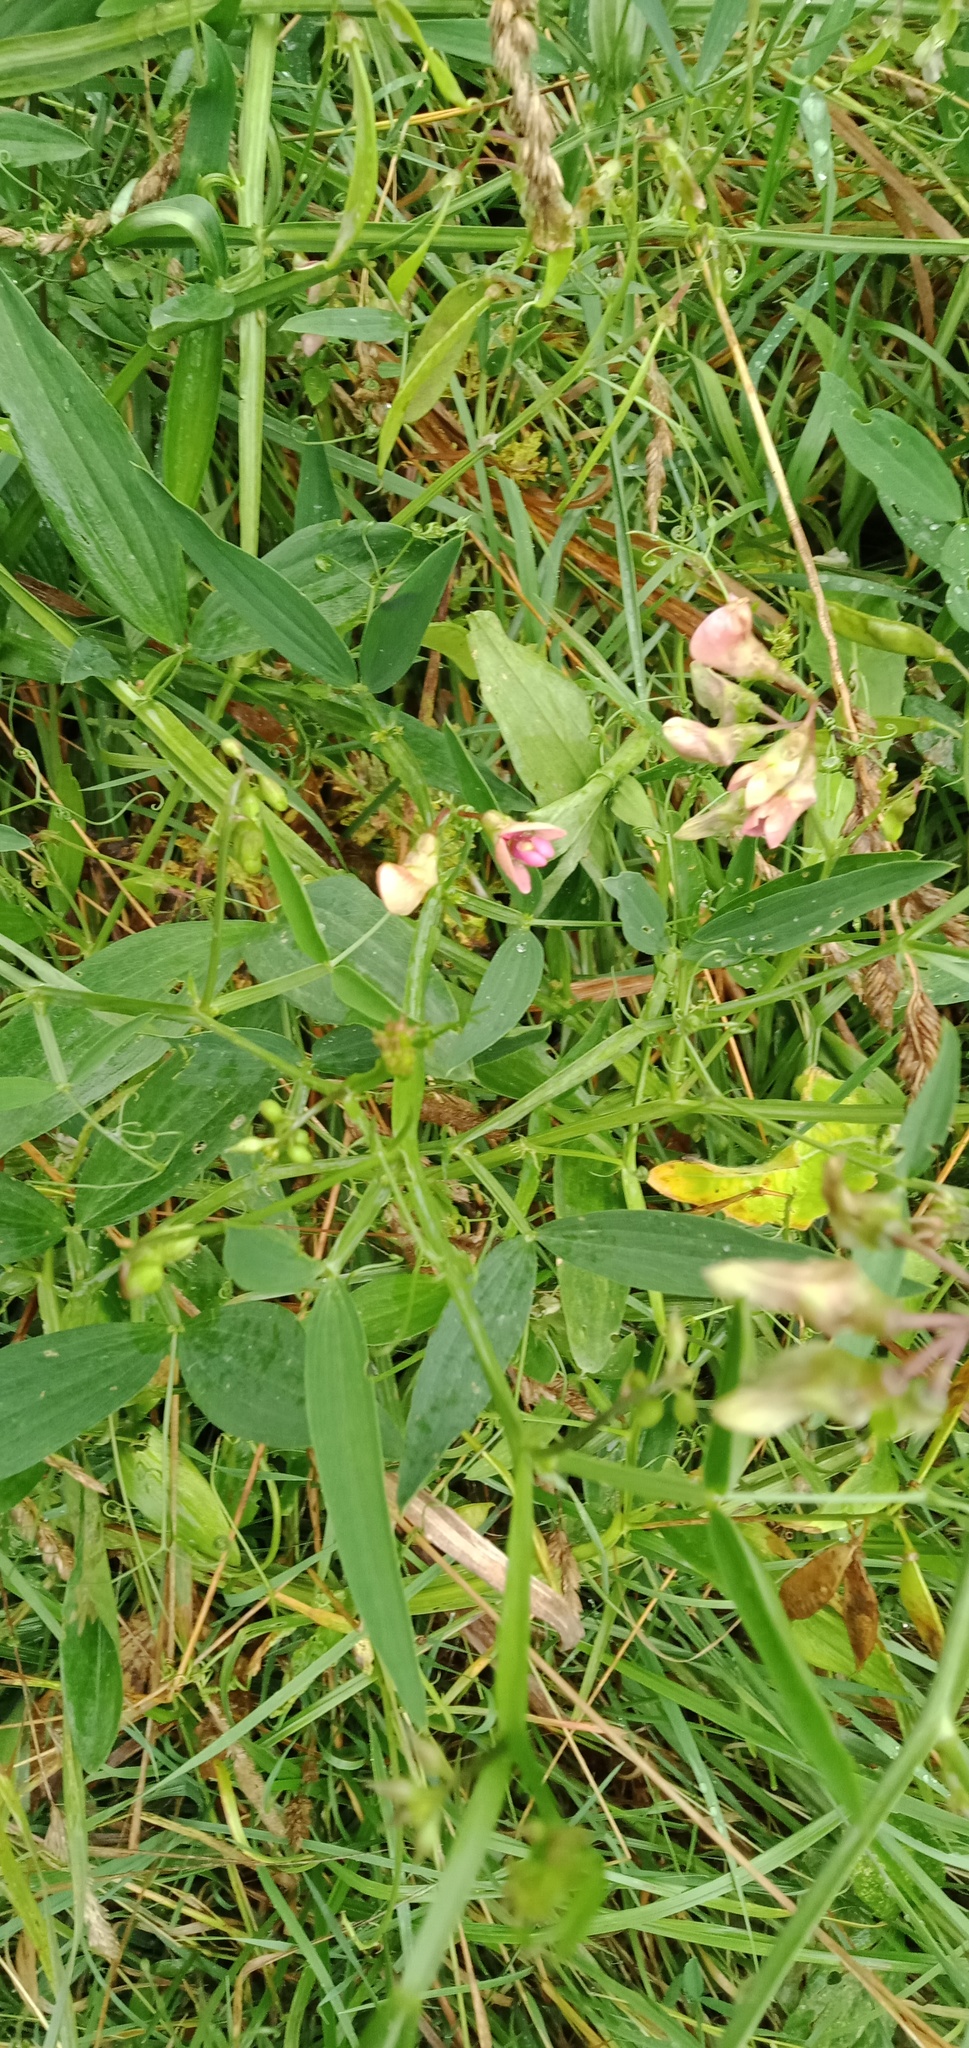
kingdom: Plantae
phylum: Tracheophyta
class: Magnoliopsida
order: Fabales
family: Fabaceae
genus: Lathyrus
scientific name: Lathyrus sylvestris
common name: Flat pea
